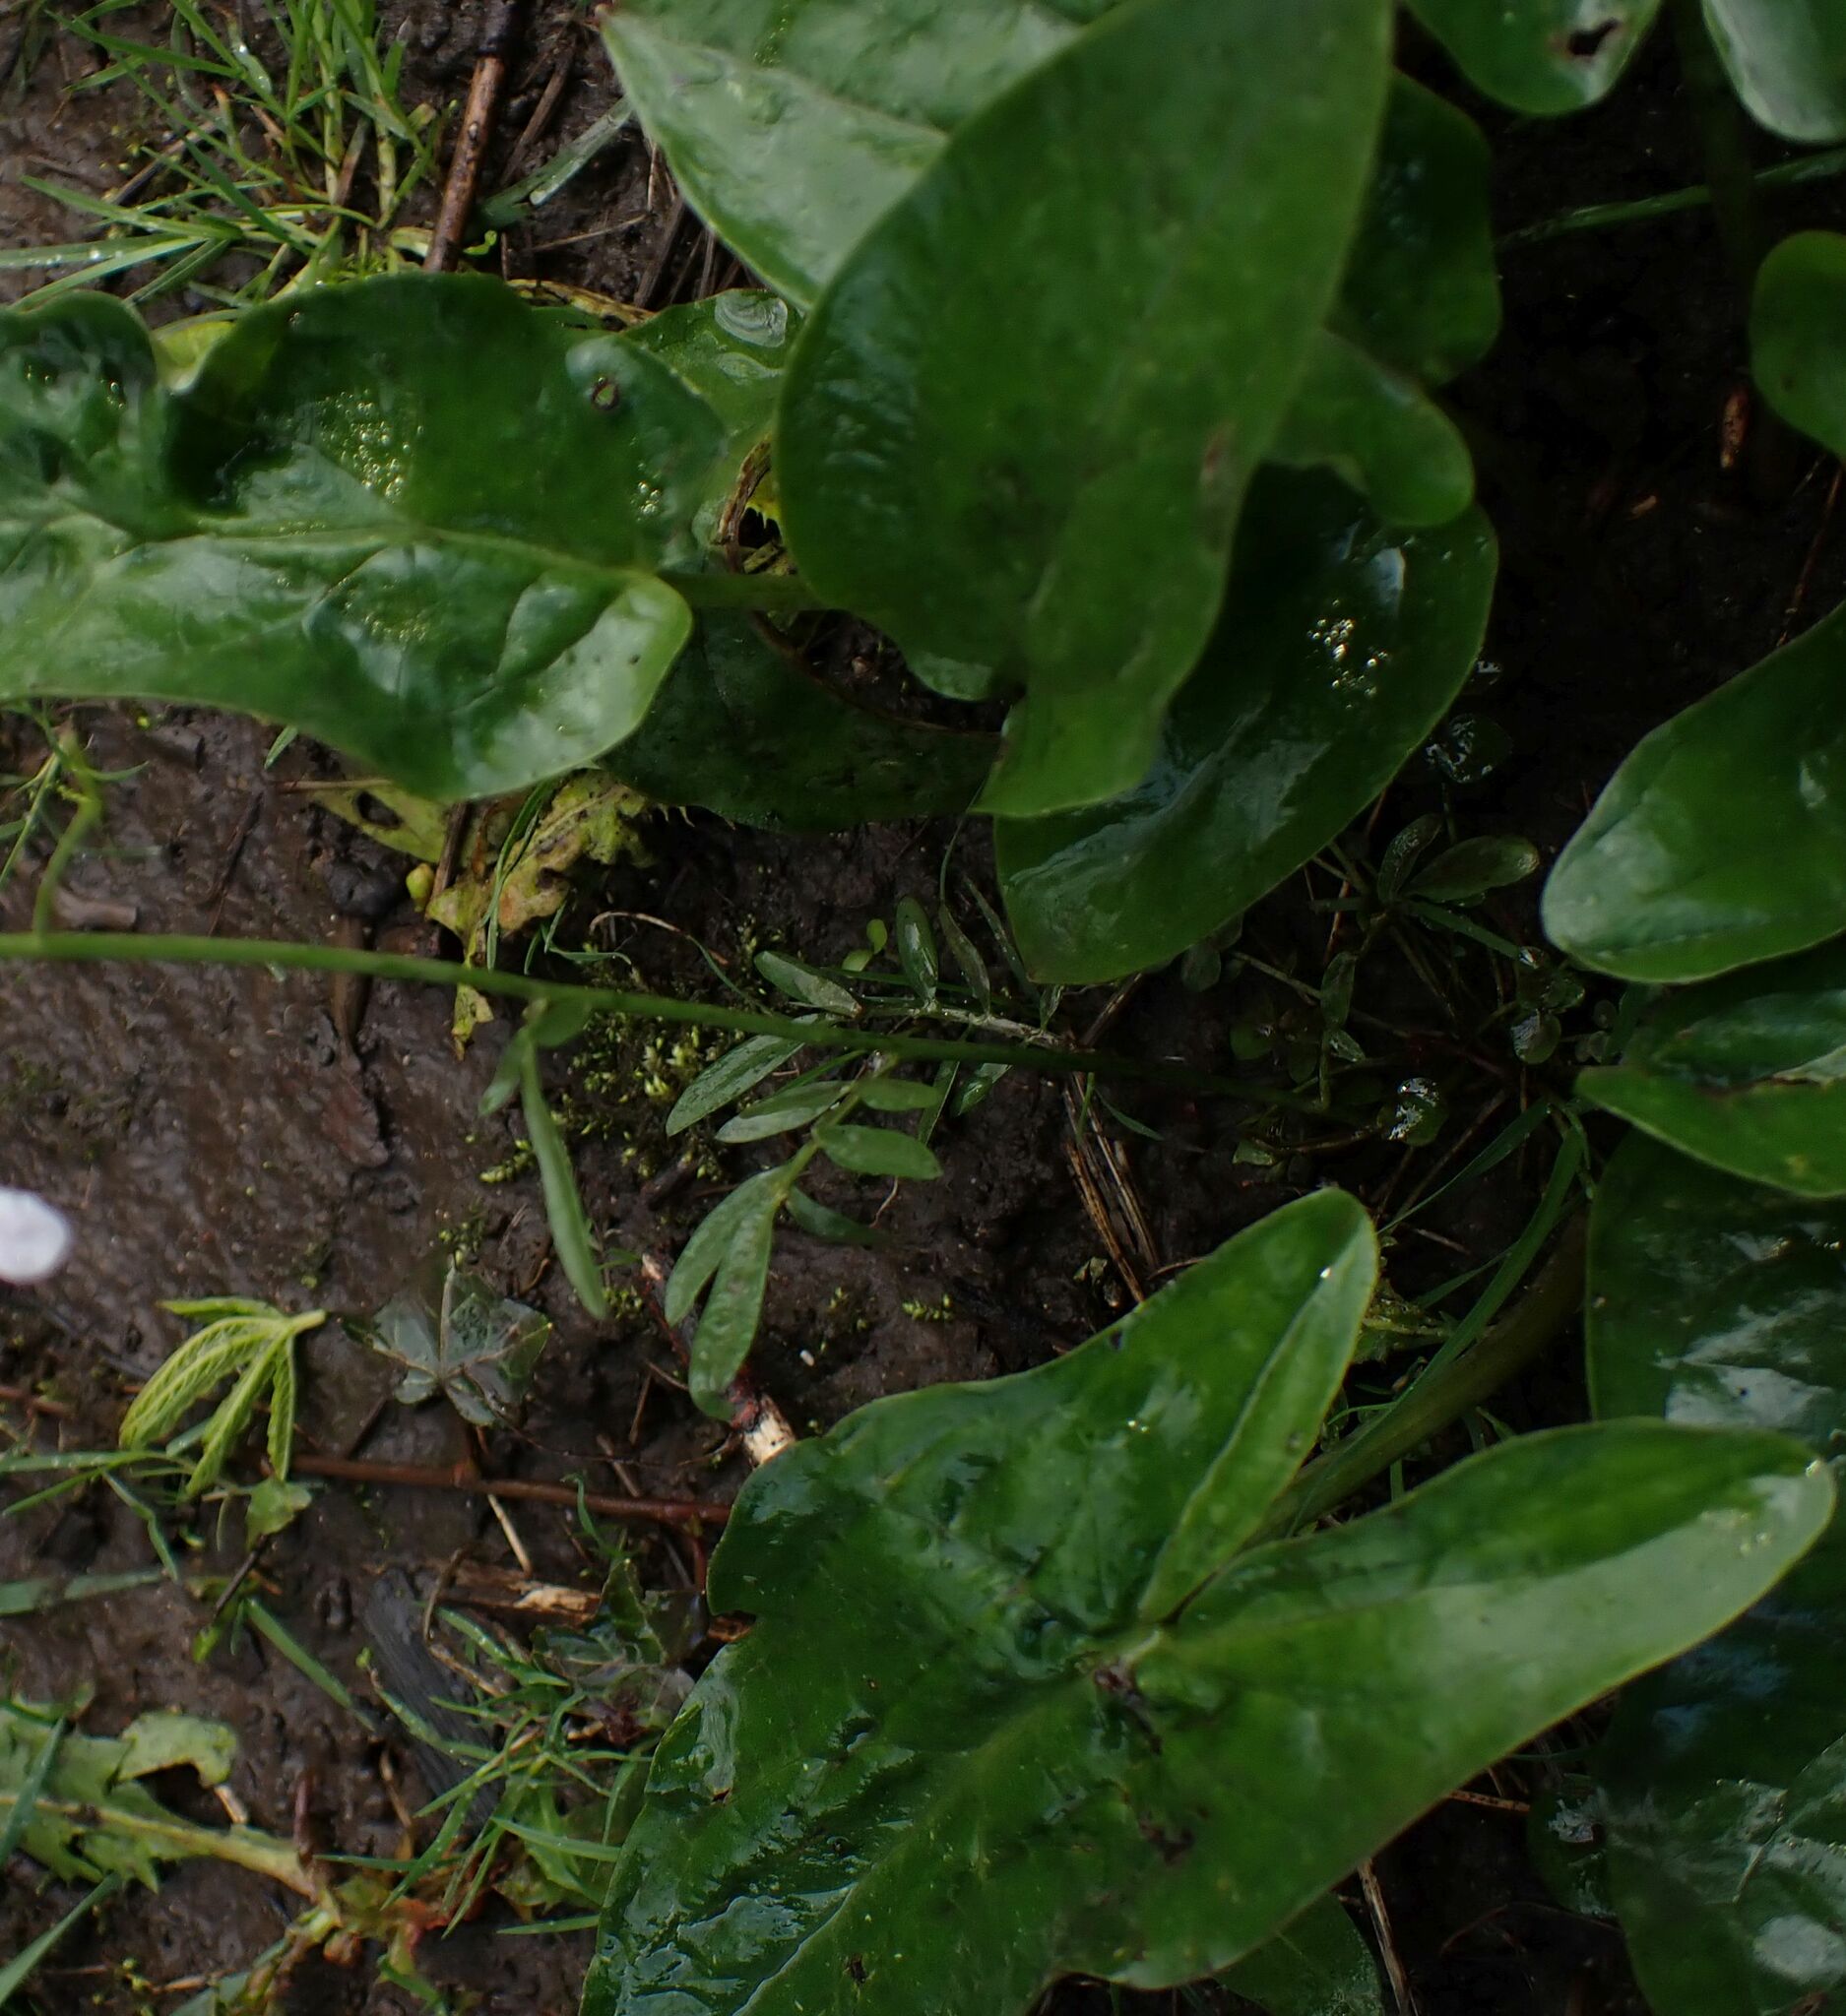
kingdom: Plantae
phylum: Tracheophyta
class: Liliopsida
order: Alismatales
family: Araceae
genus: Arum
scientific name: Arum maculatum
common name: Lords-and-ladies
